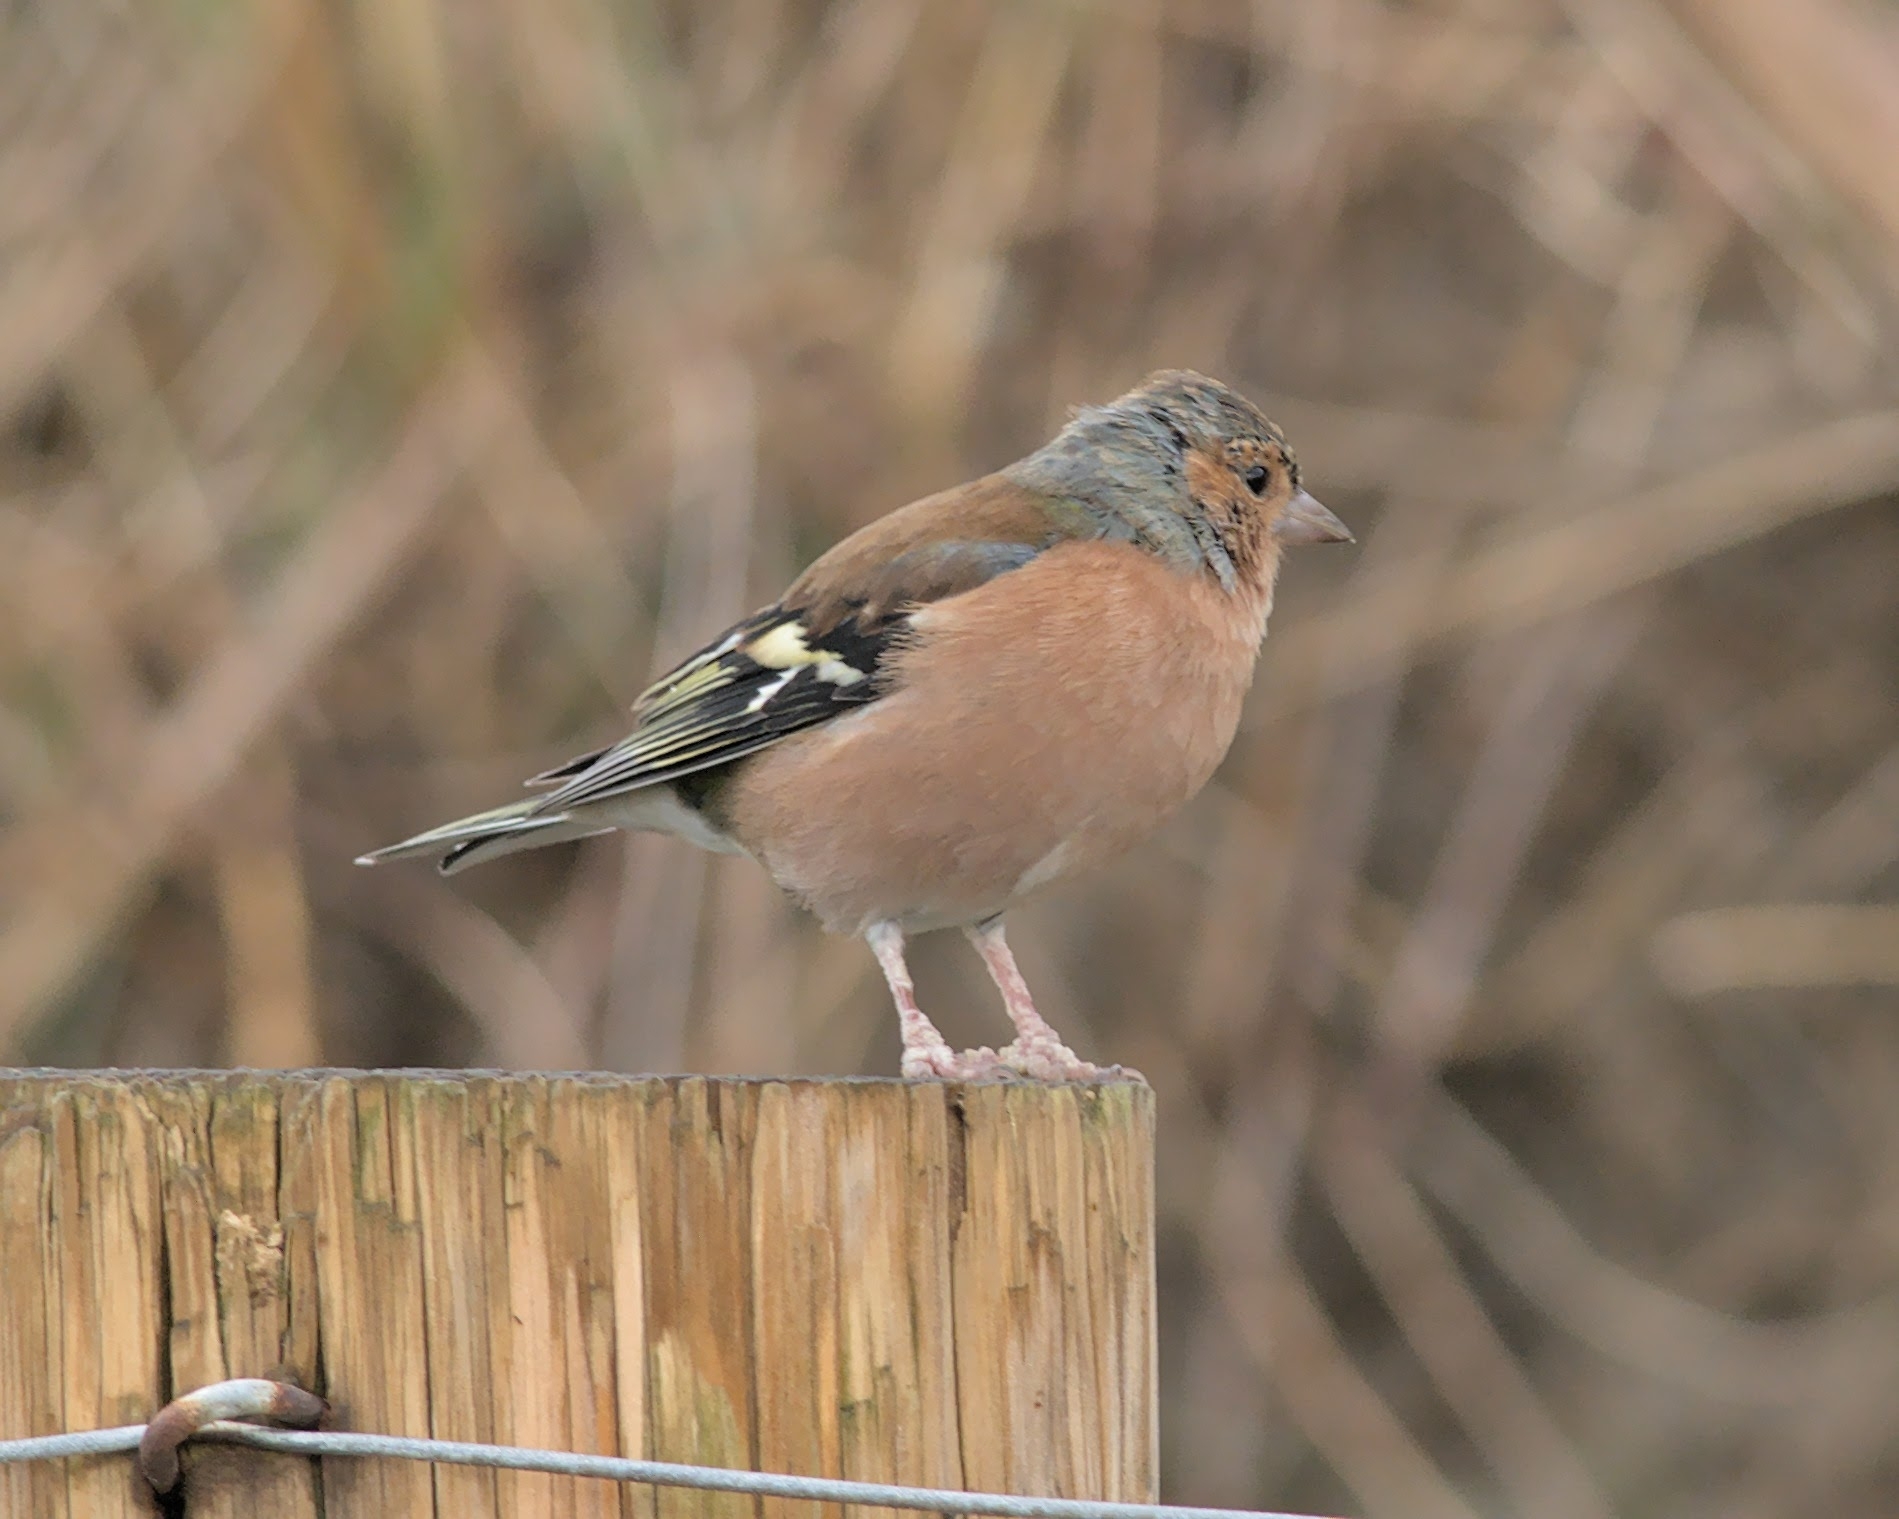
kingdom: Animalia
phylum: Chordata
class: Aves
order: Passeriformes
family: Fringillidae
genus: Fringilla
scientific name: Fringilla coelebs
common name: Common chaffinch
